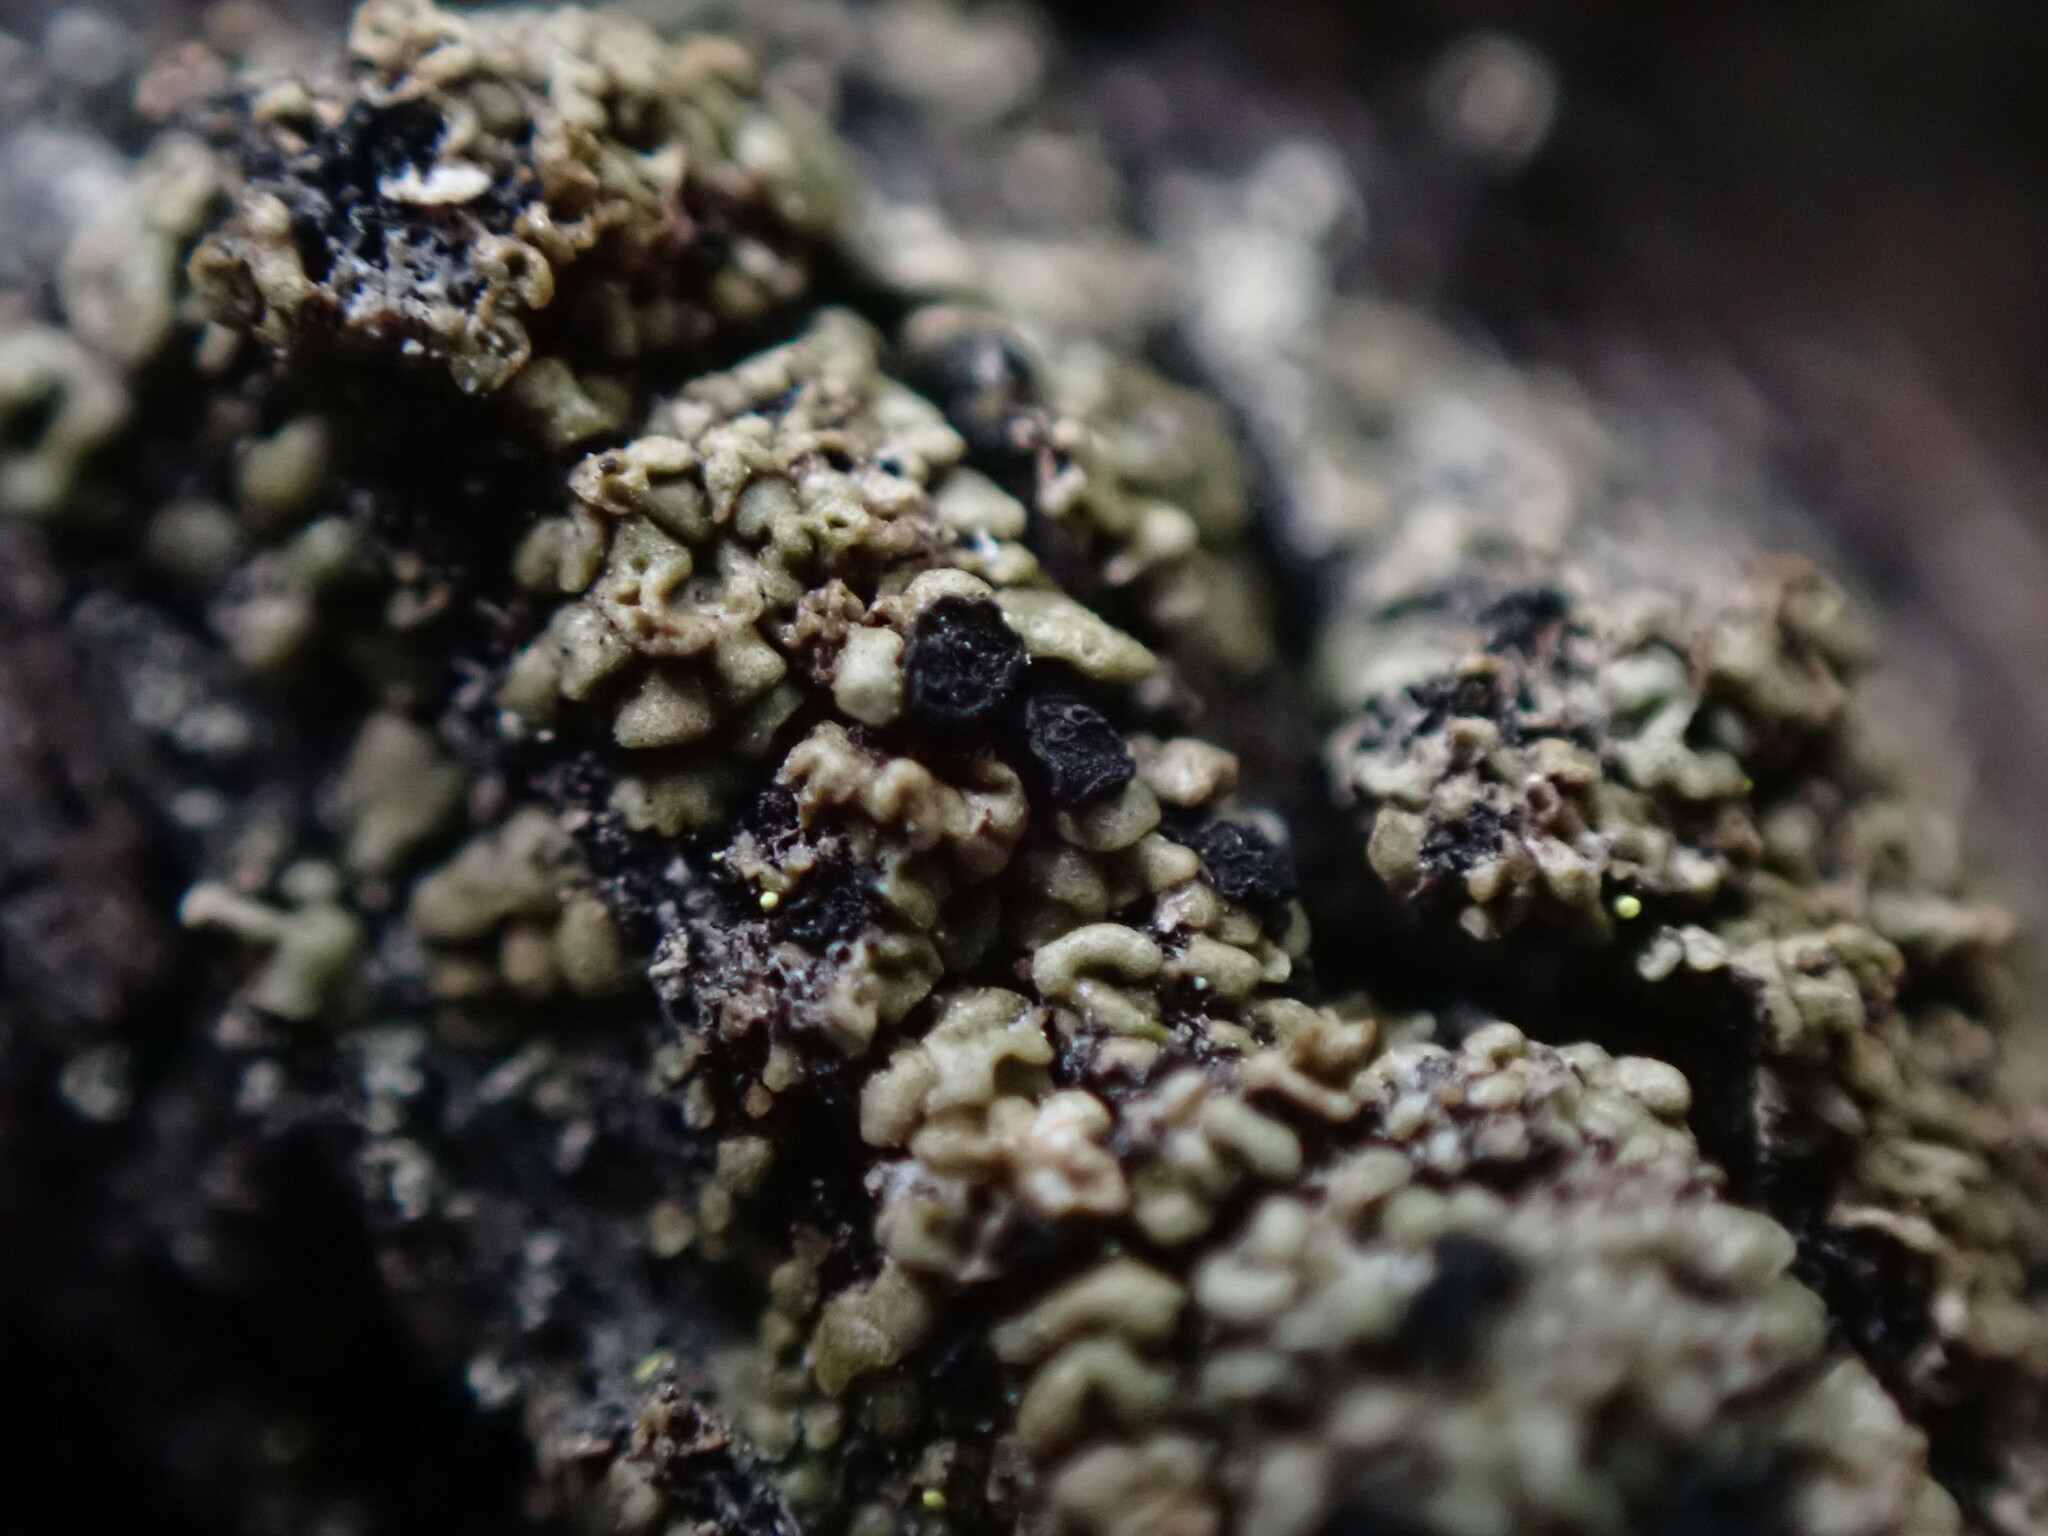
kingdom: Fungi
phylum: Ascomycota
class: Lecanoromycetes
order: Umbilicariales
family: Umbilicariaceae
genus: Xylopsora
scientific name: Xylopsora friesii
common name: Old-growth clam lichen
